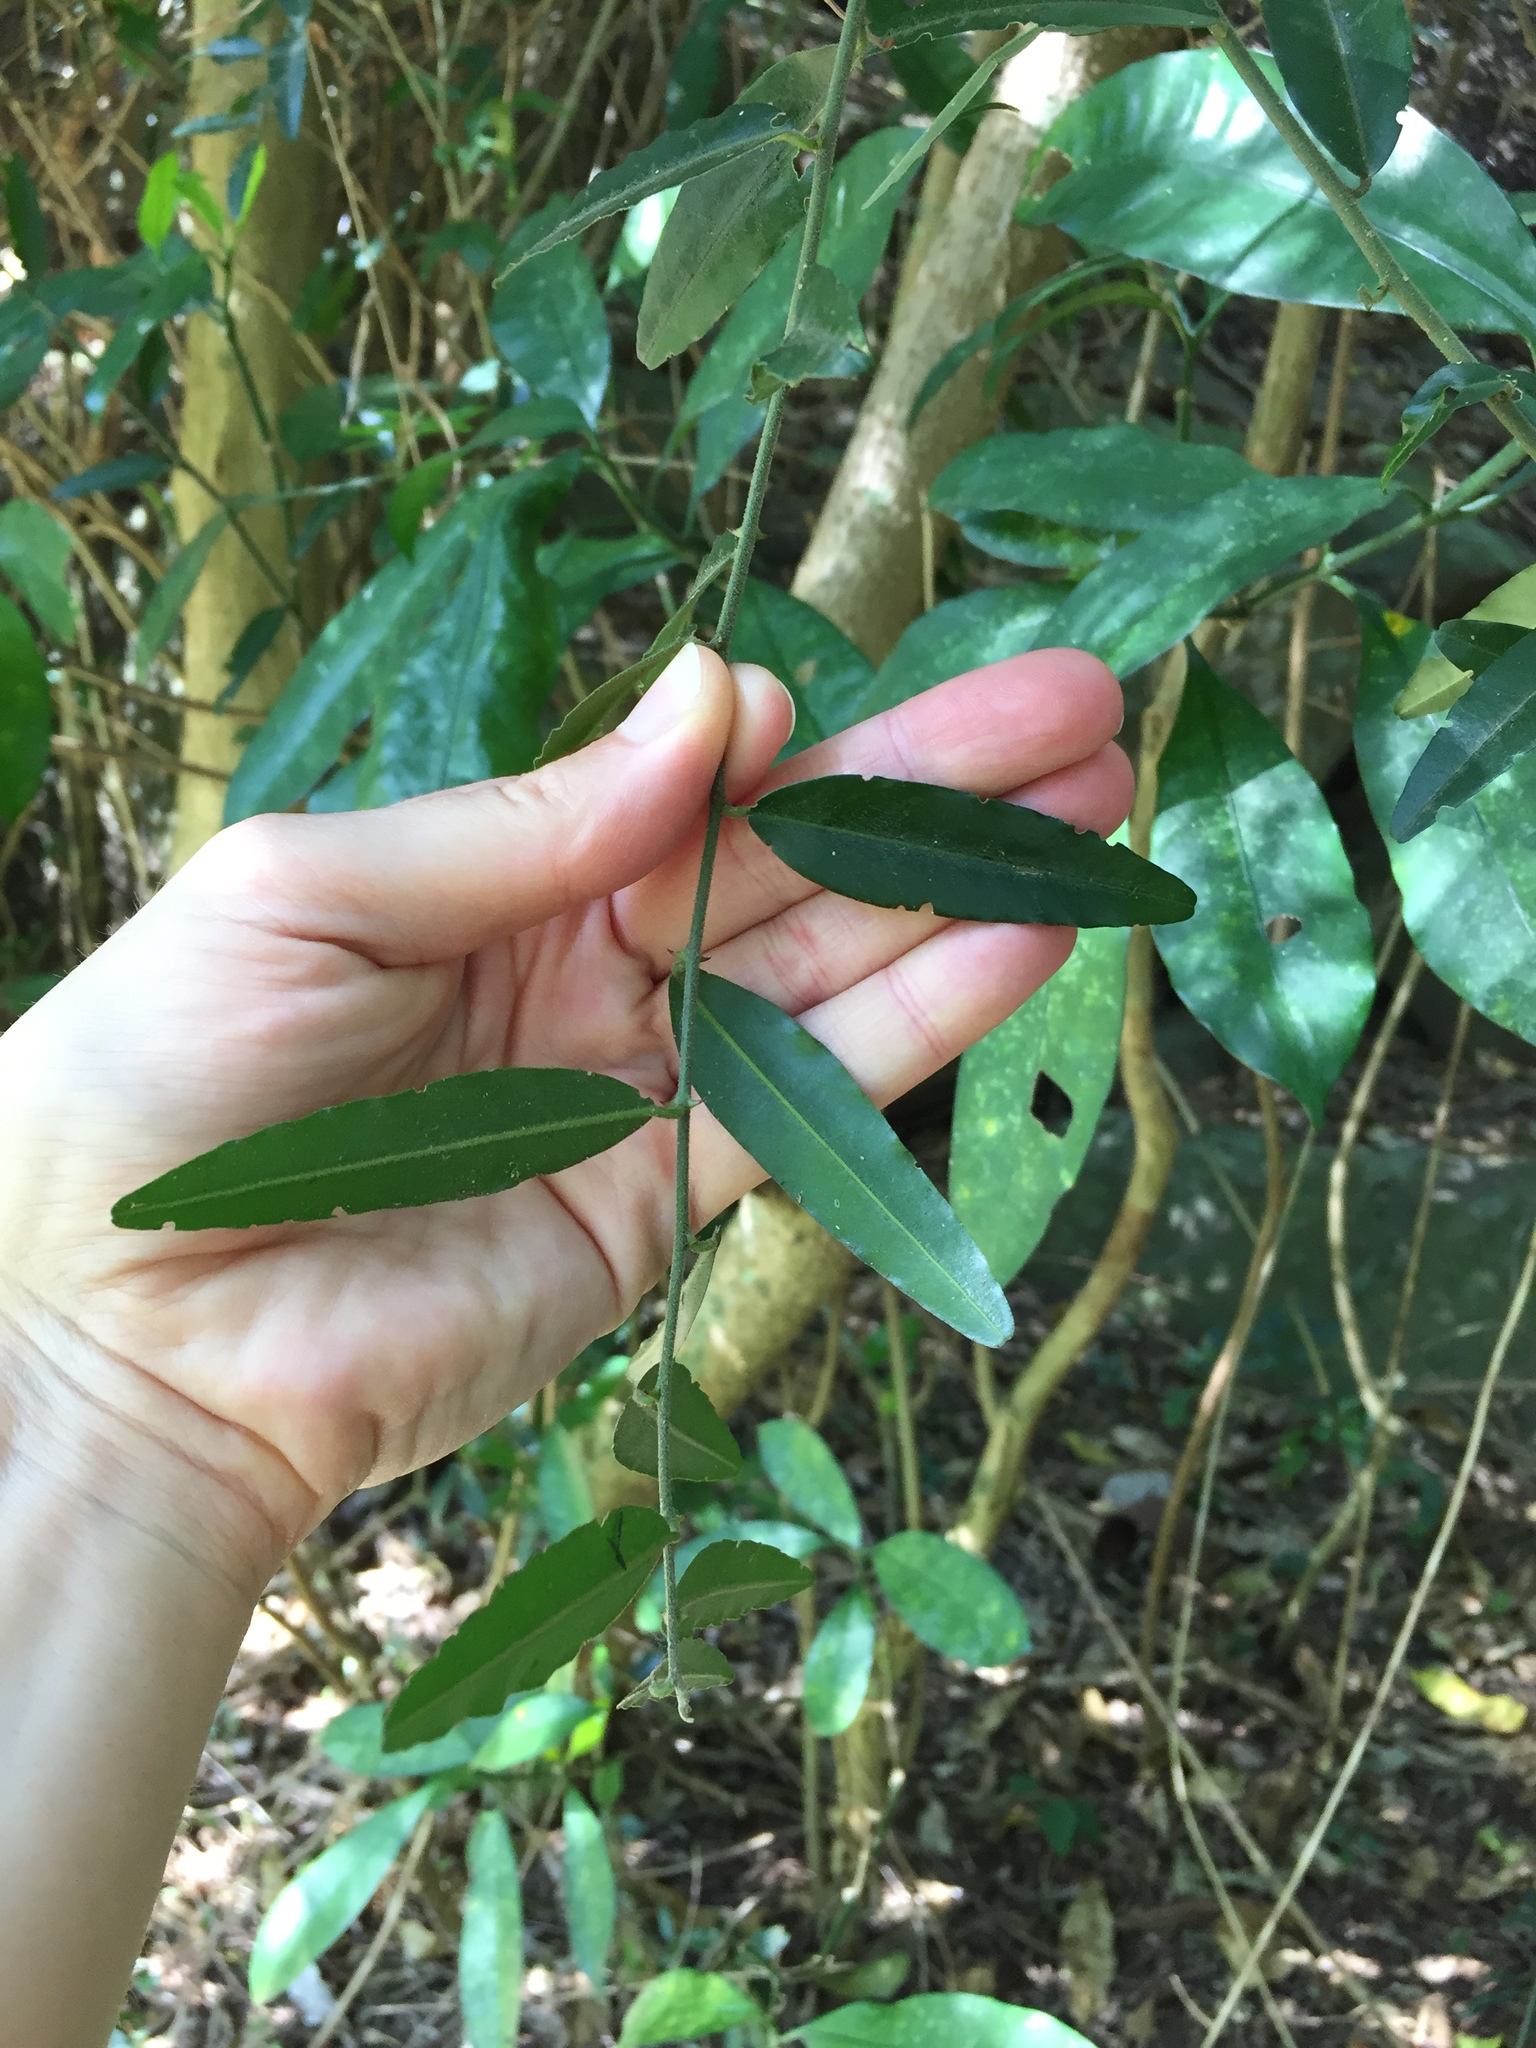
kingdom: Plantae
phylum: Tracheophyta
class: Magnoliopsida
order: Brassicales
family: Capparaceae
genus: Capparis
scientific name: Capparis brassii
